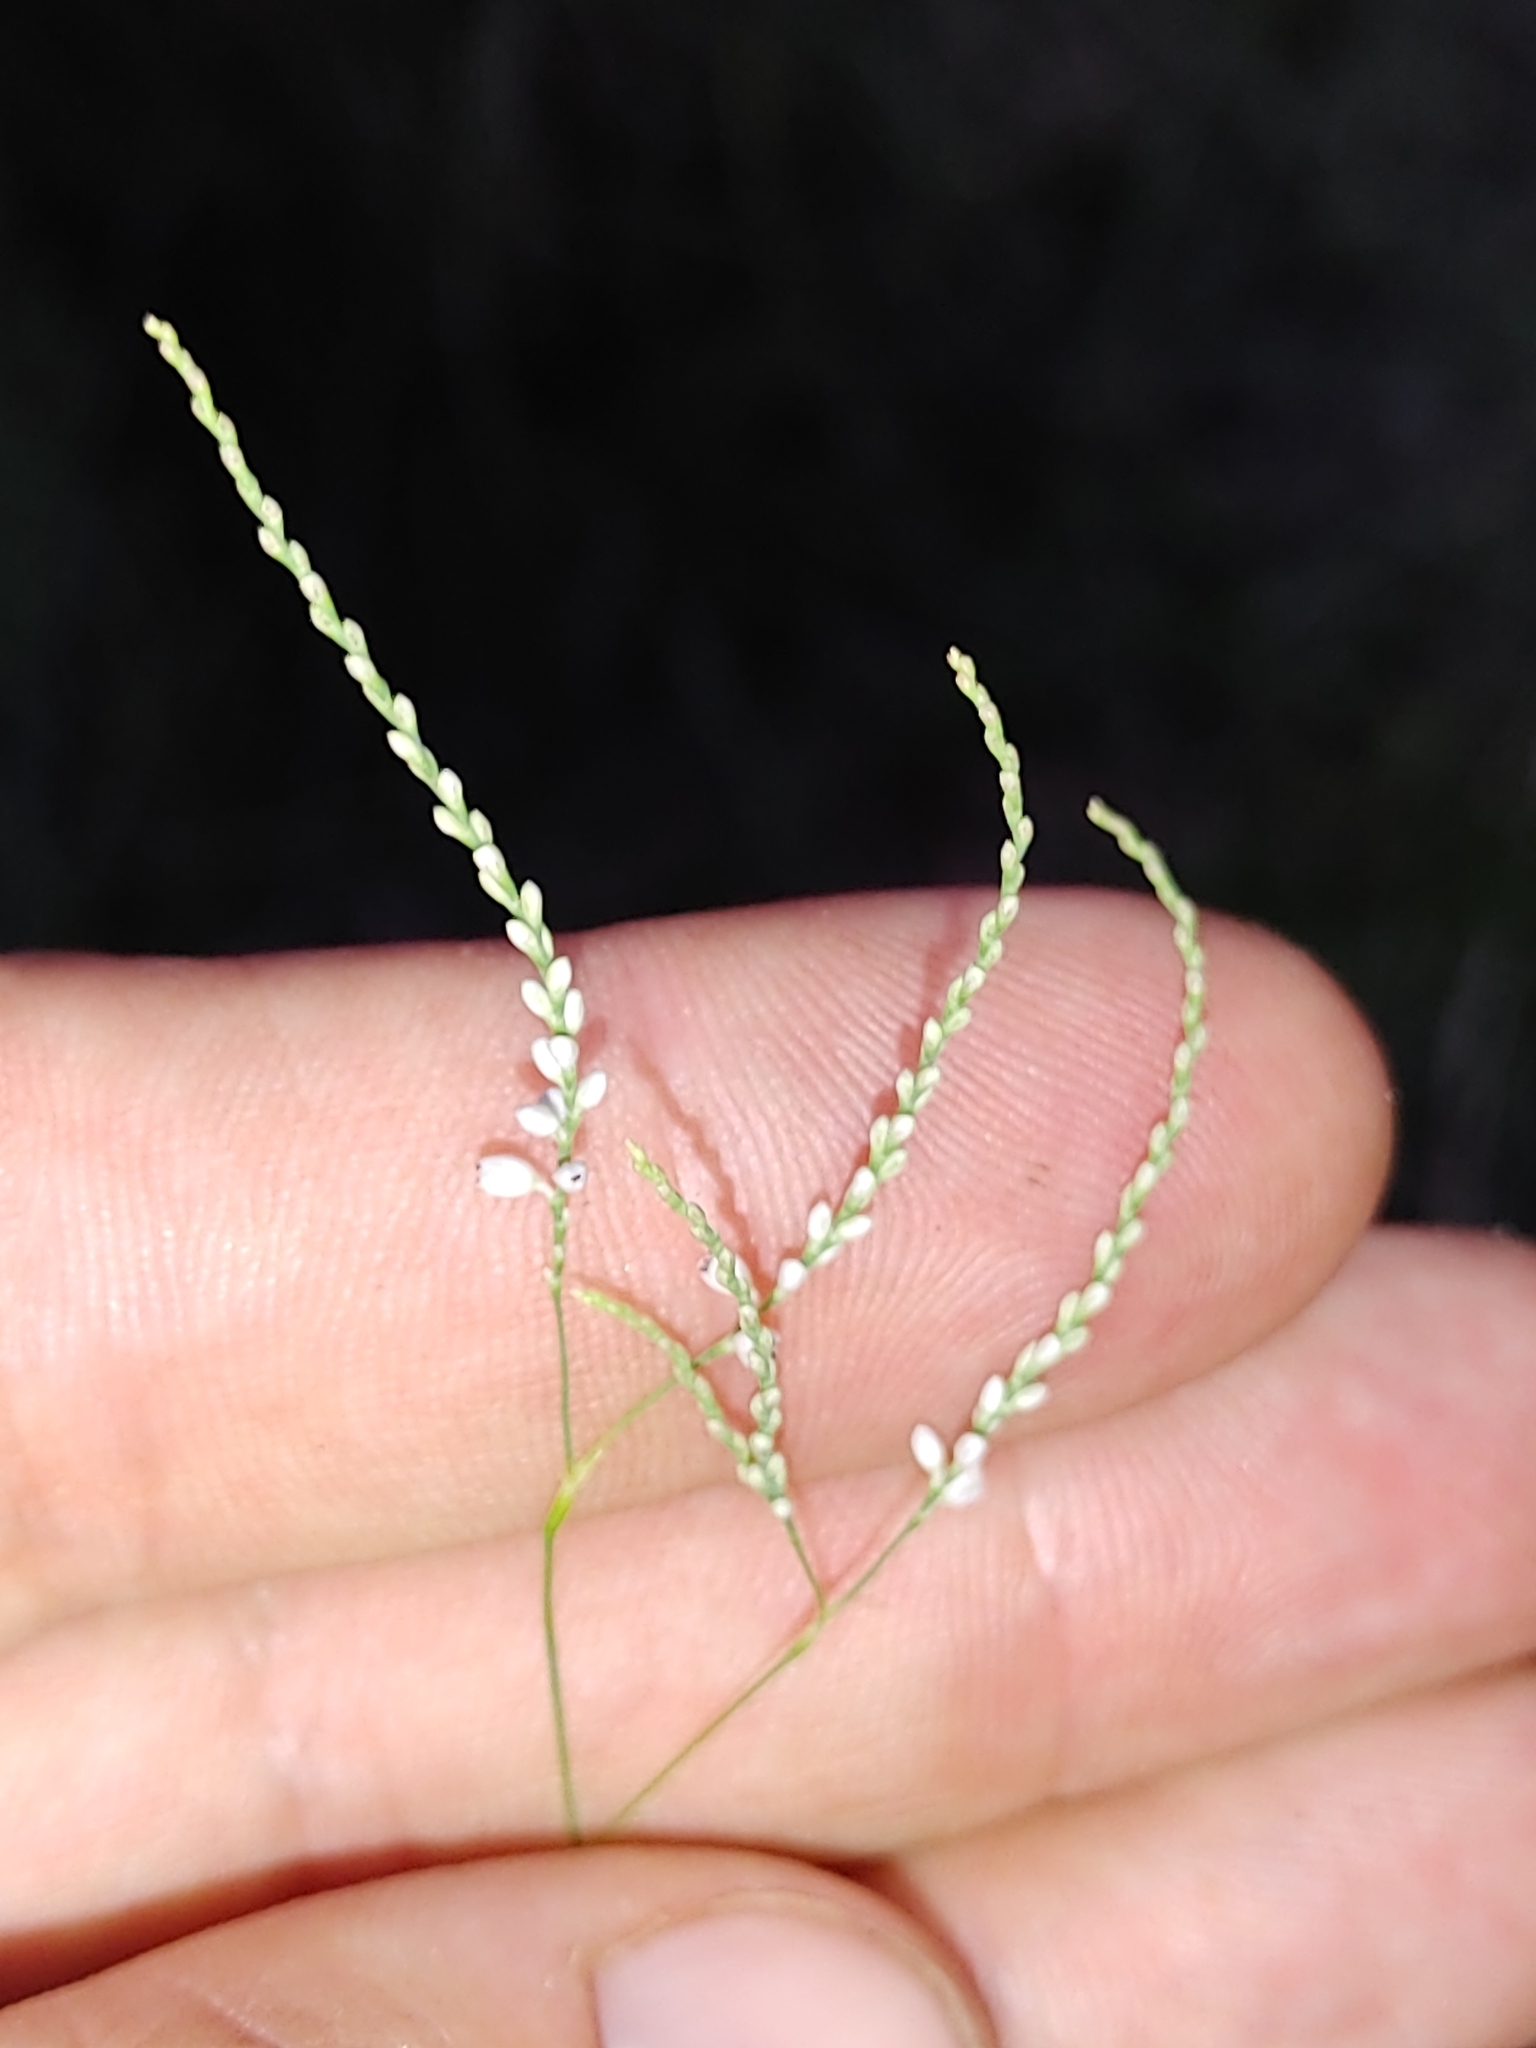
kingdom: Plantae
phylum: Tracheophyta
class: Magnoliopsida
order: Caryophyllales
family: Polygonaceae
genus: Polygonella
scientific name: Polygonella gracilis
